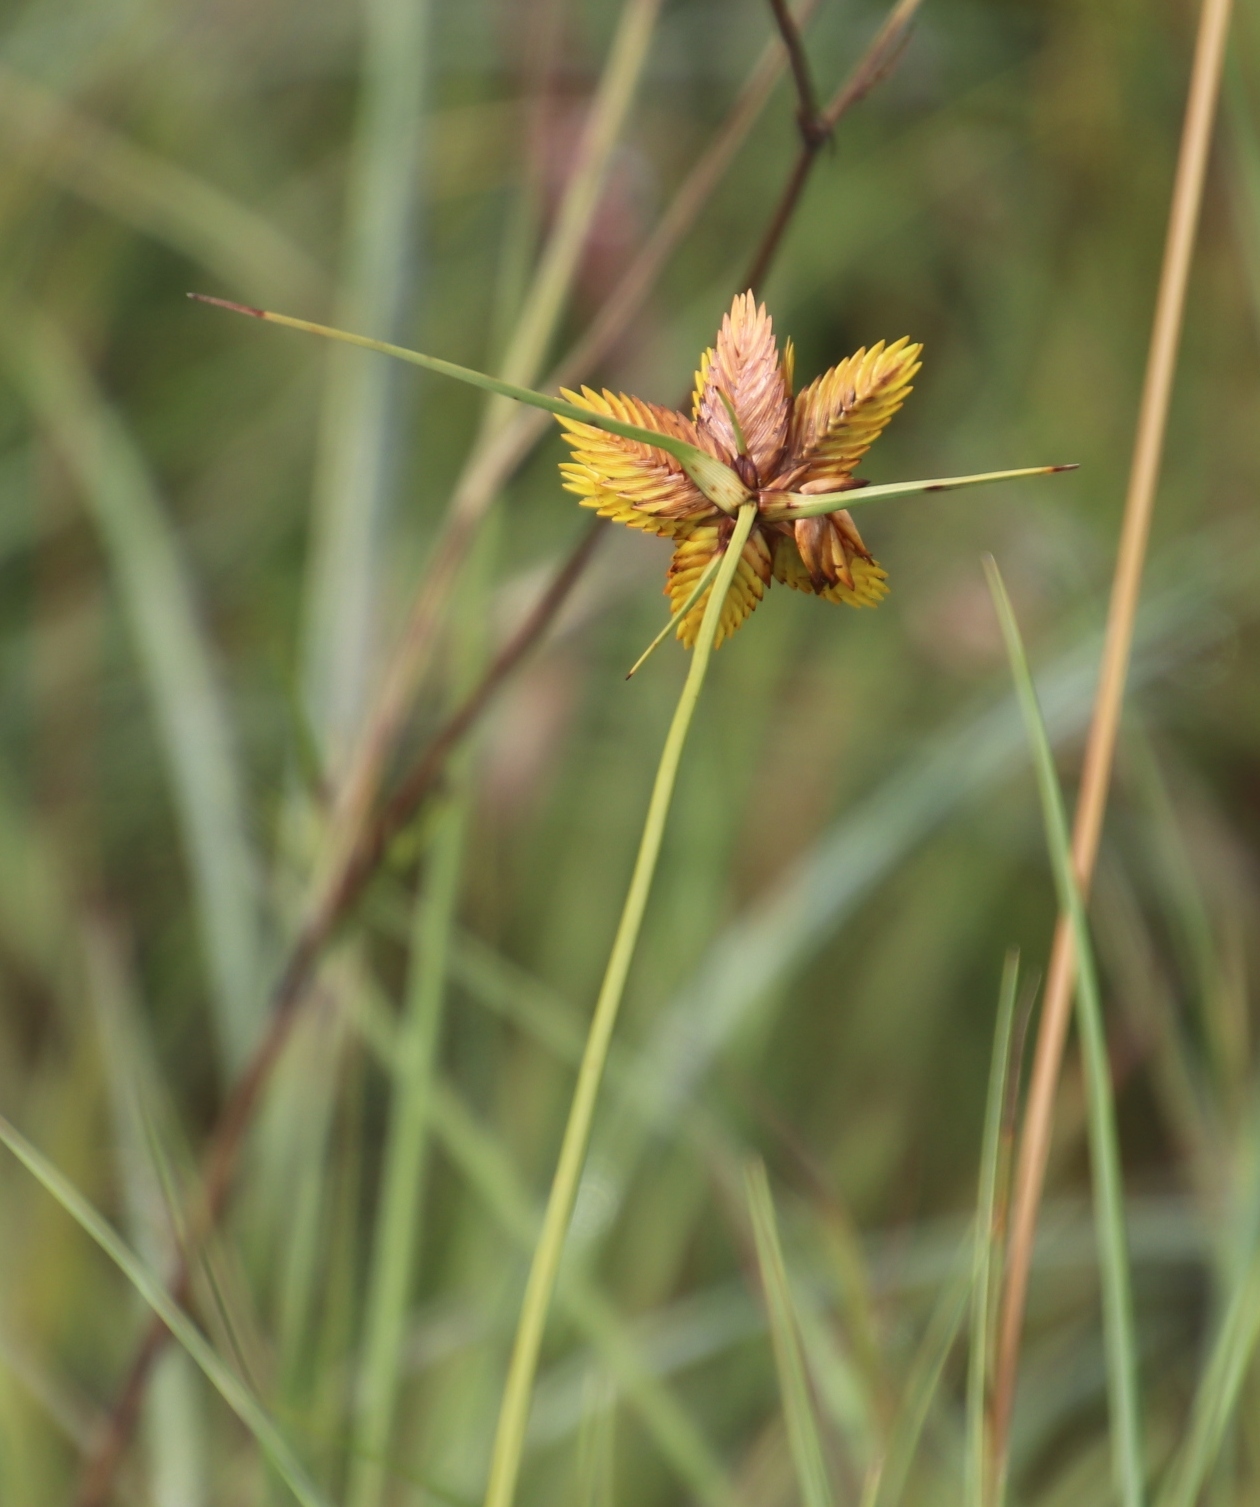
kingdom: Plantae
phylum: Tracheophyta
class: Liliopsida
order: Poales
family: Cyperaceae
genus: Cyperus
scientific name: Cyperus sphaerocephalus
